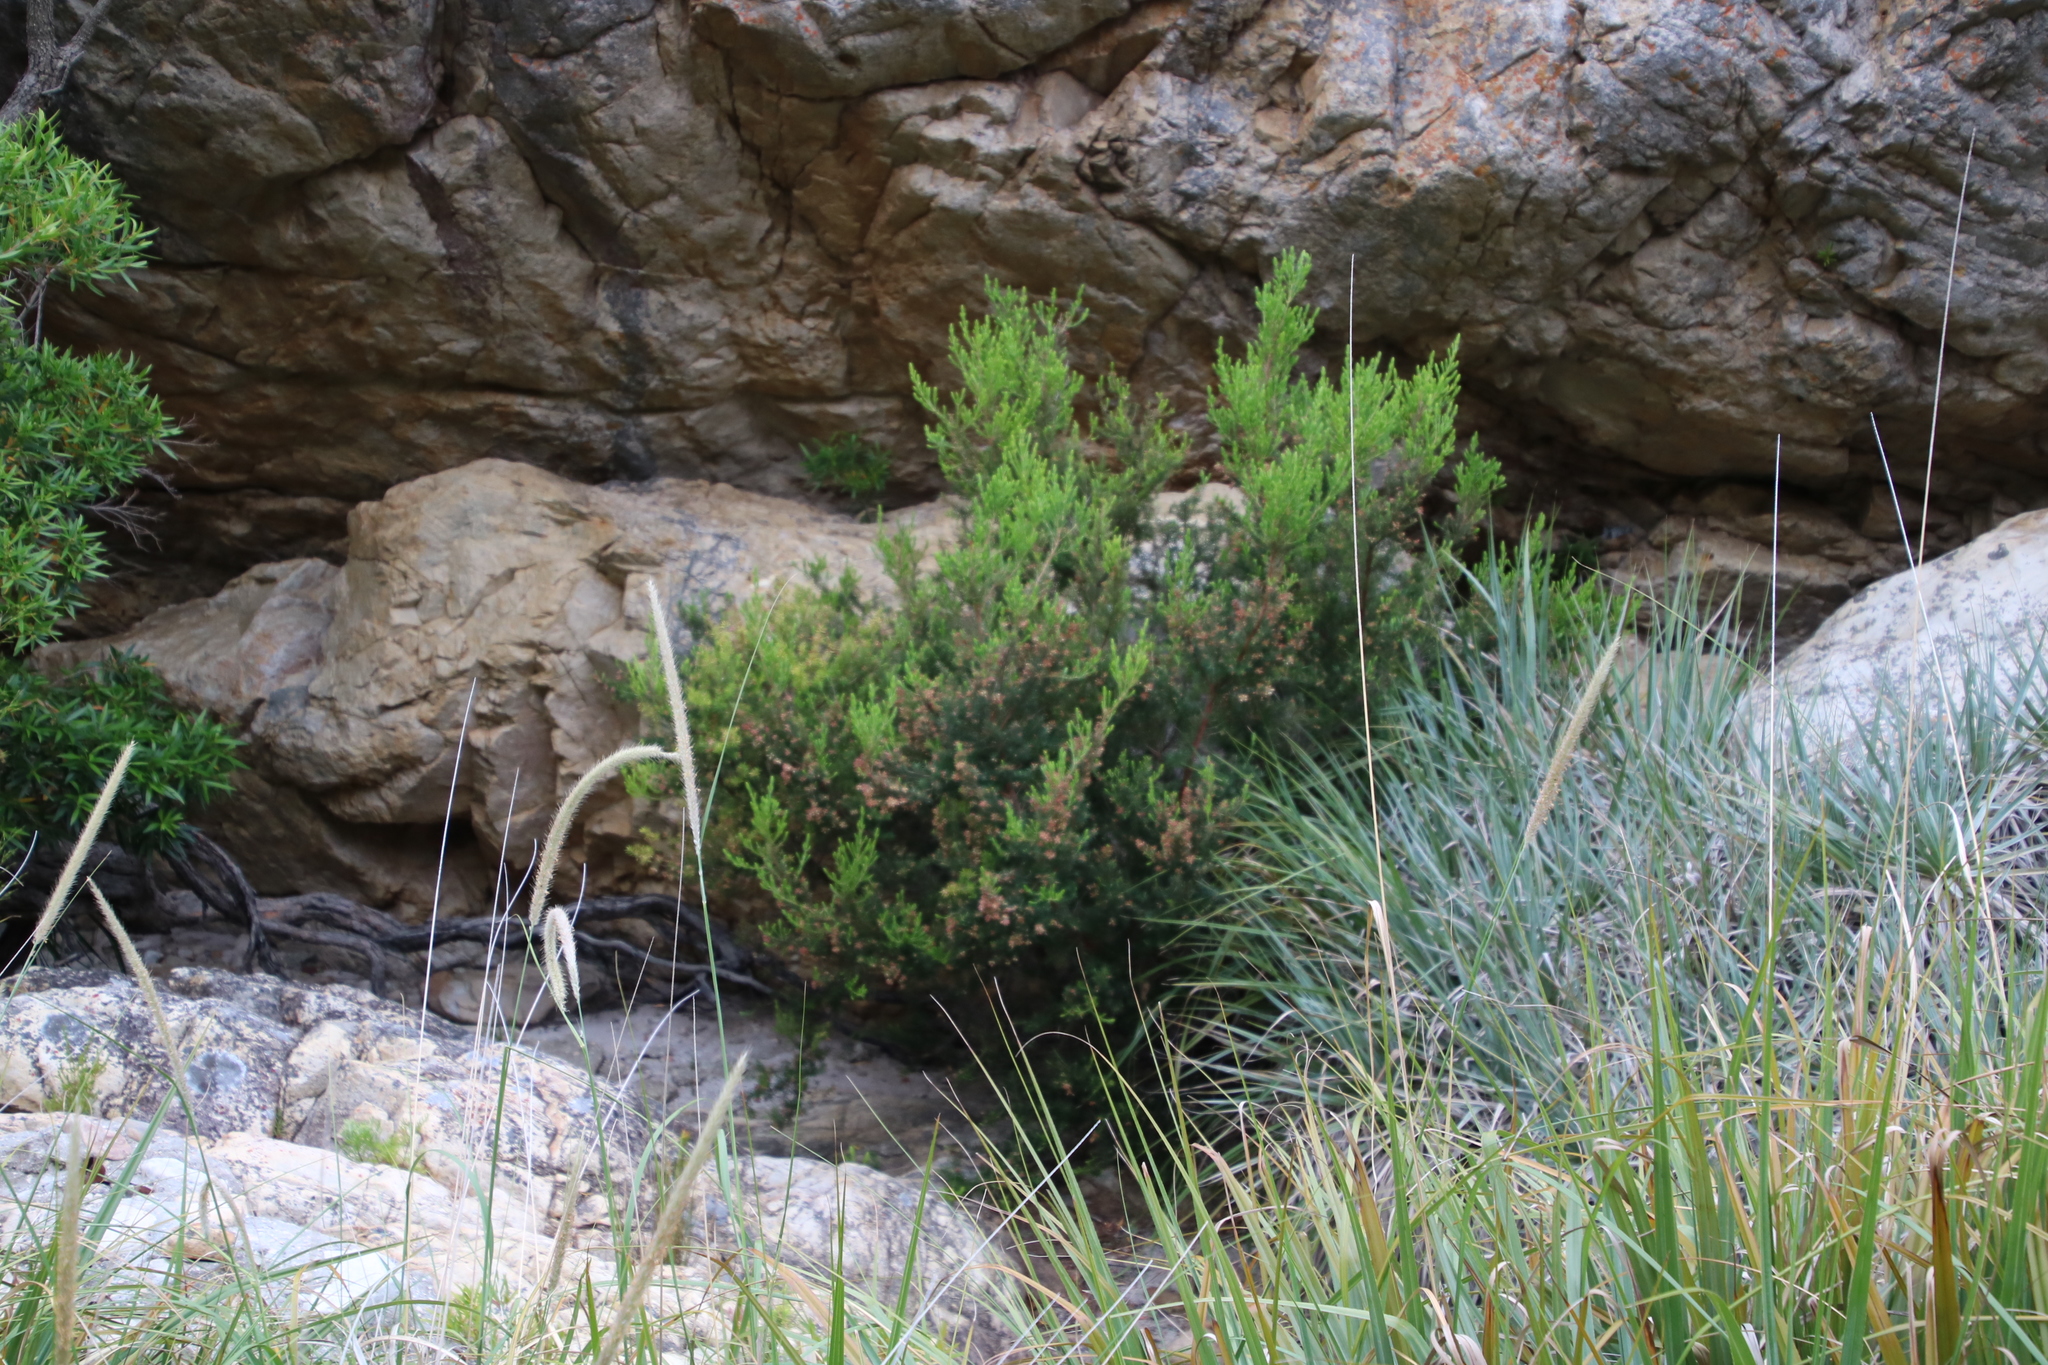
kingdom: Plantae
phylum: Tracheophyta
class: Magnoliopsida
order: Ericales
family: Ericaceae
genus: Erica
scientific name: Erica caffra
